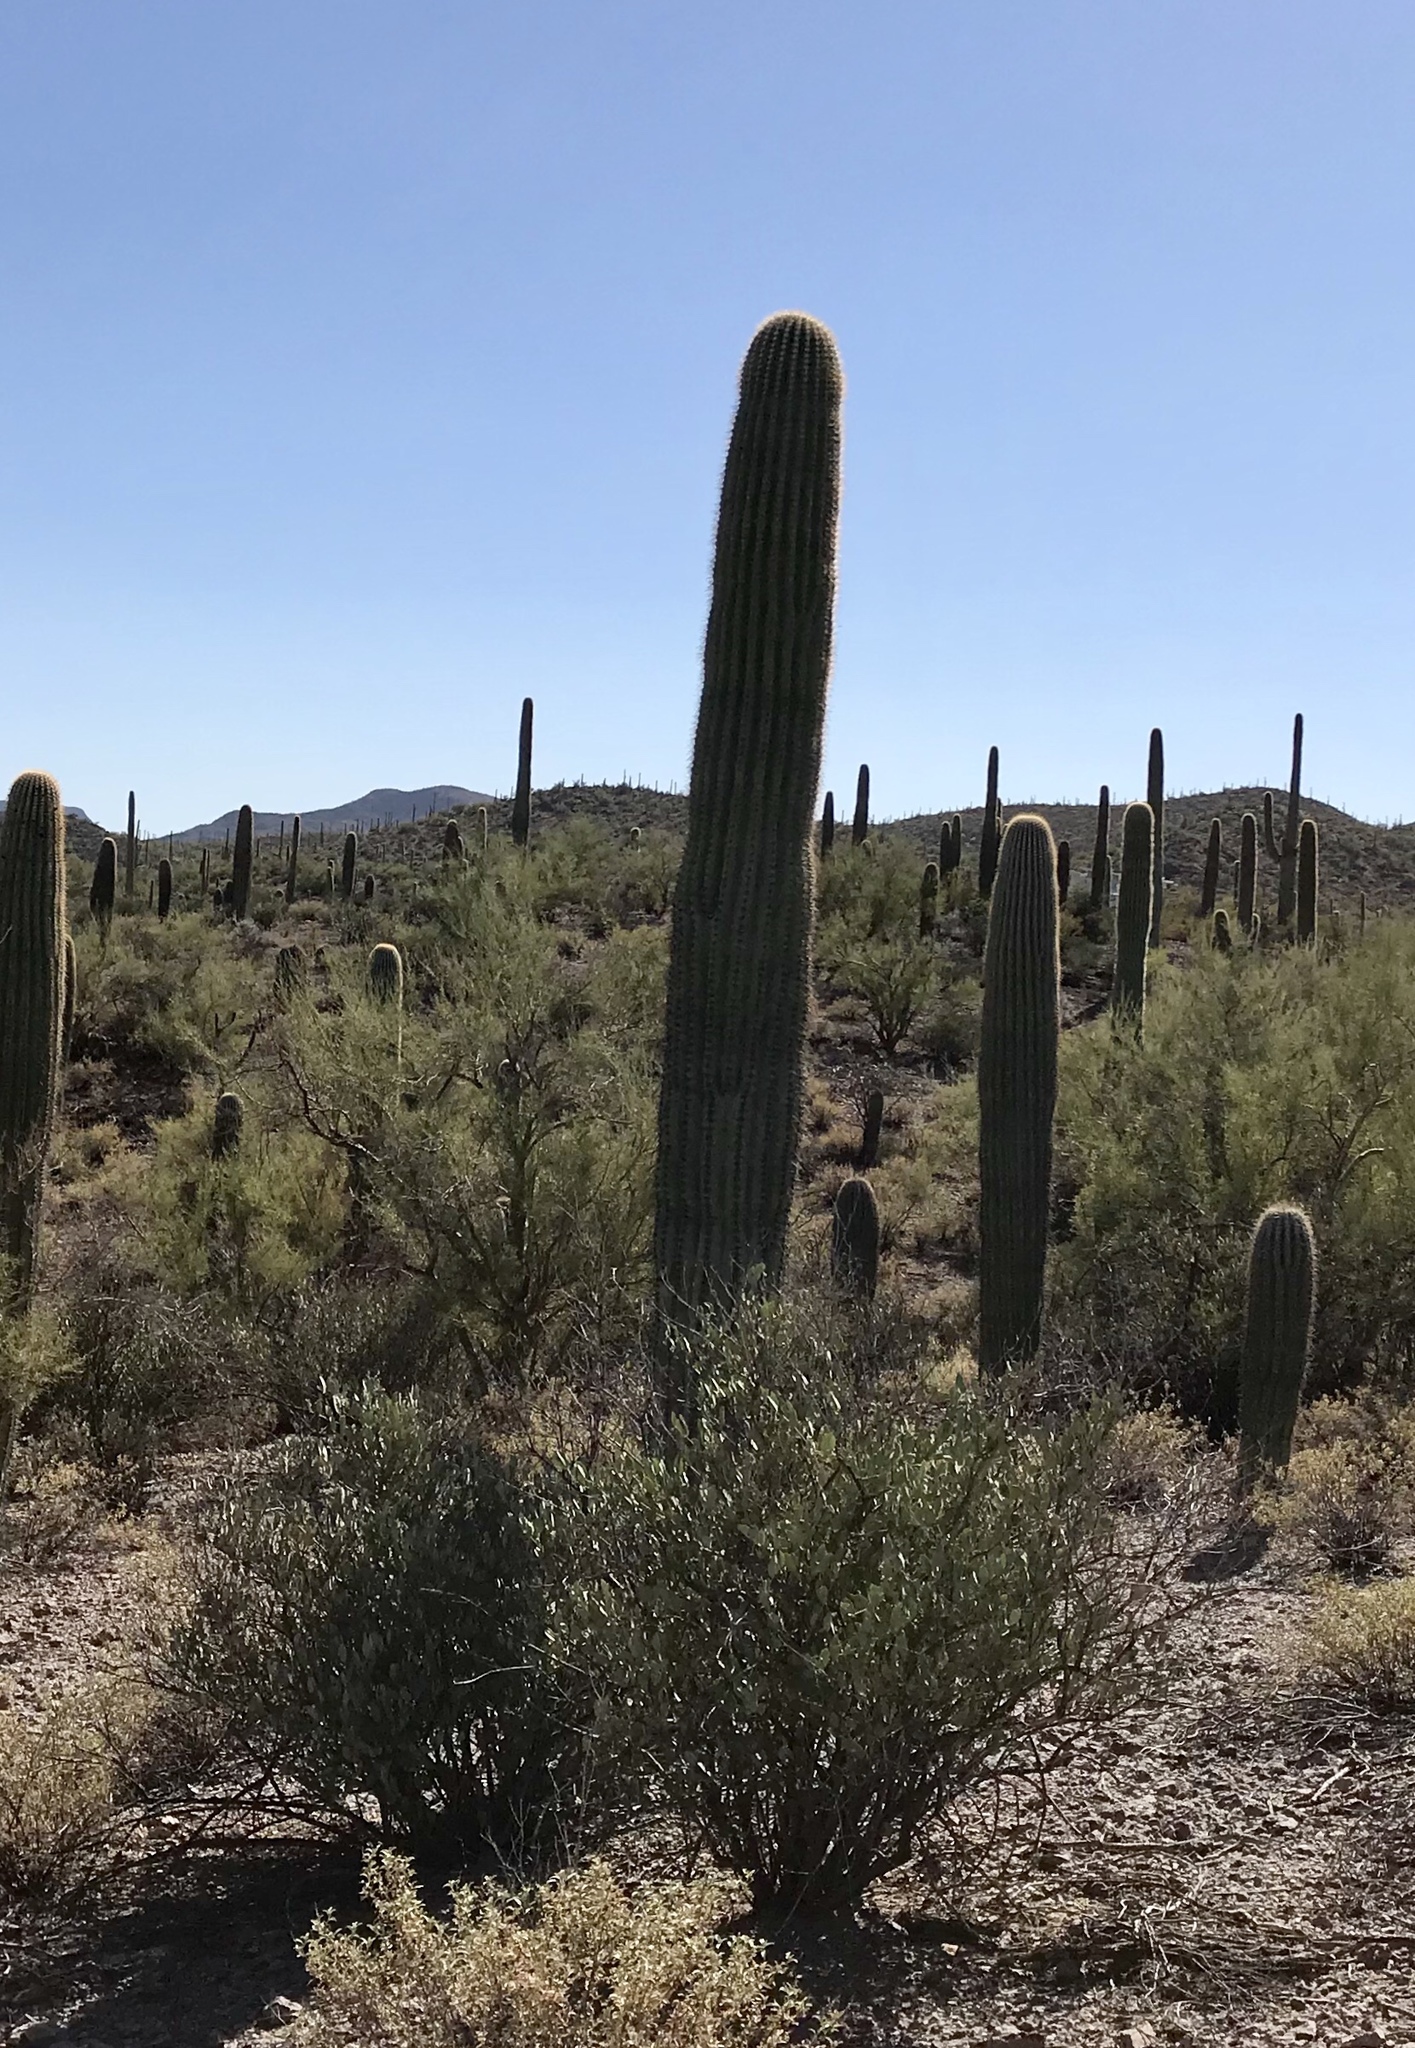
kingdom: Plantae
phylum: Tracheophyta
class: Magnoliopsida
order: Caryophyllales
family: Cactaceae
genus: Carnegiea
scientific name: Carnegiea gigantea
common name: Saguaro
